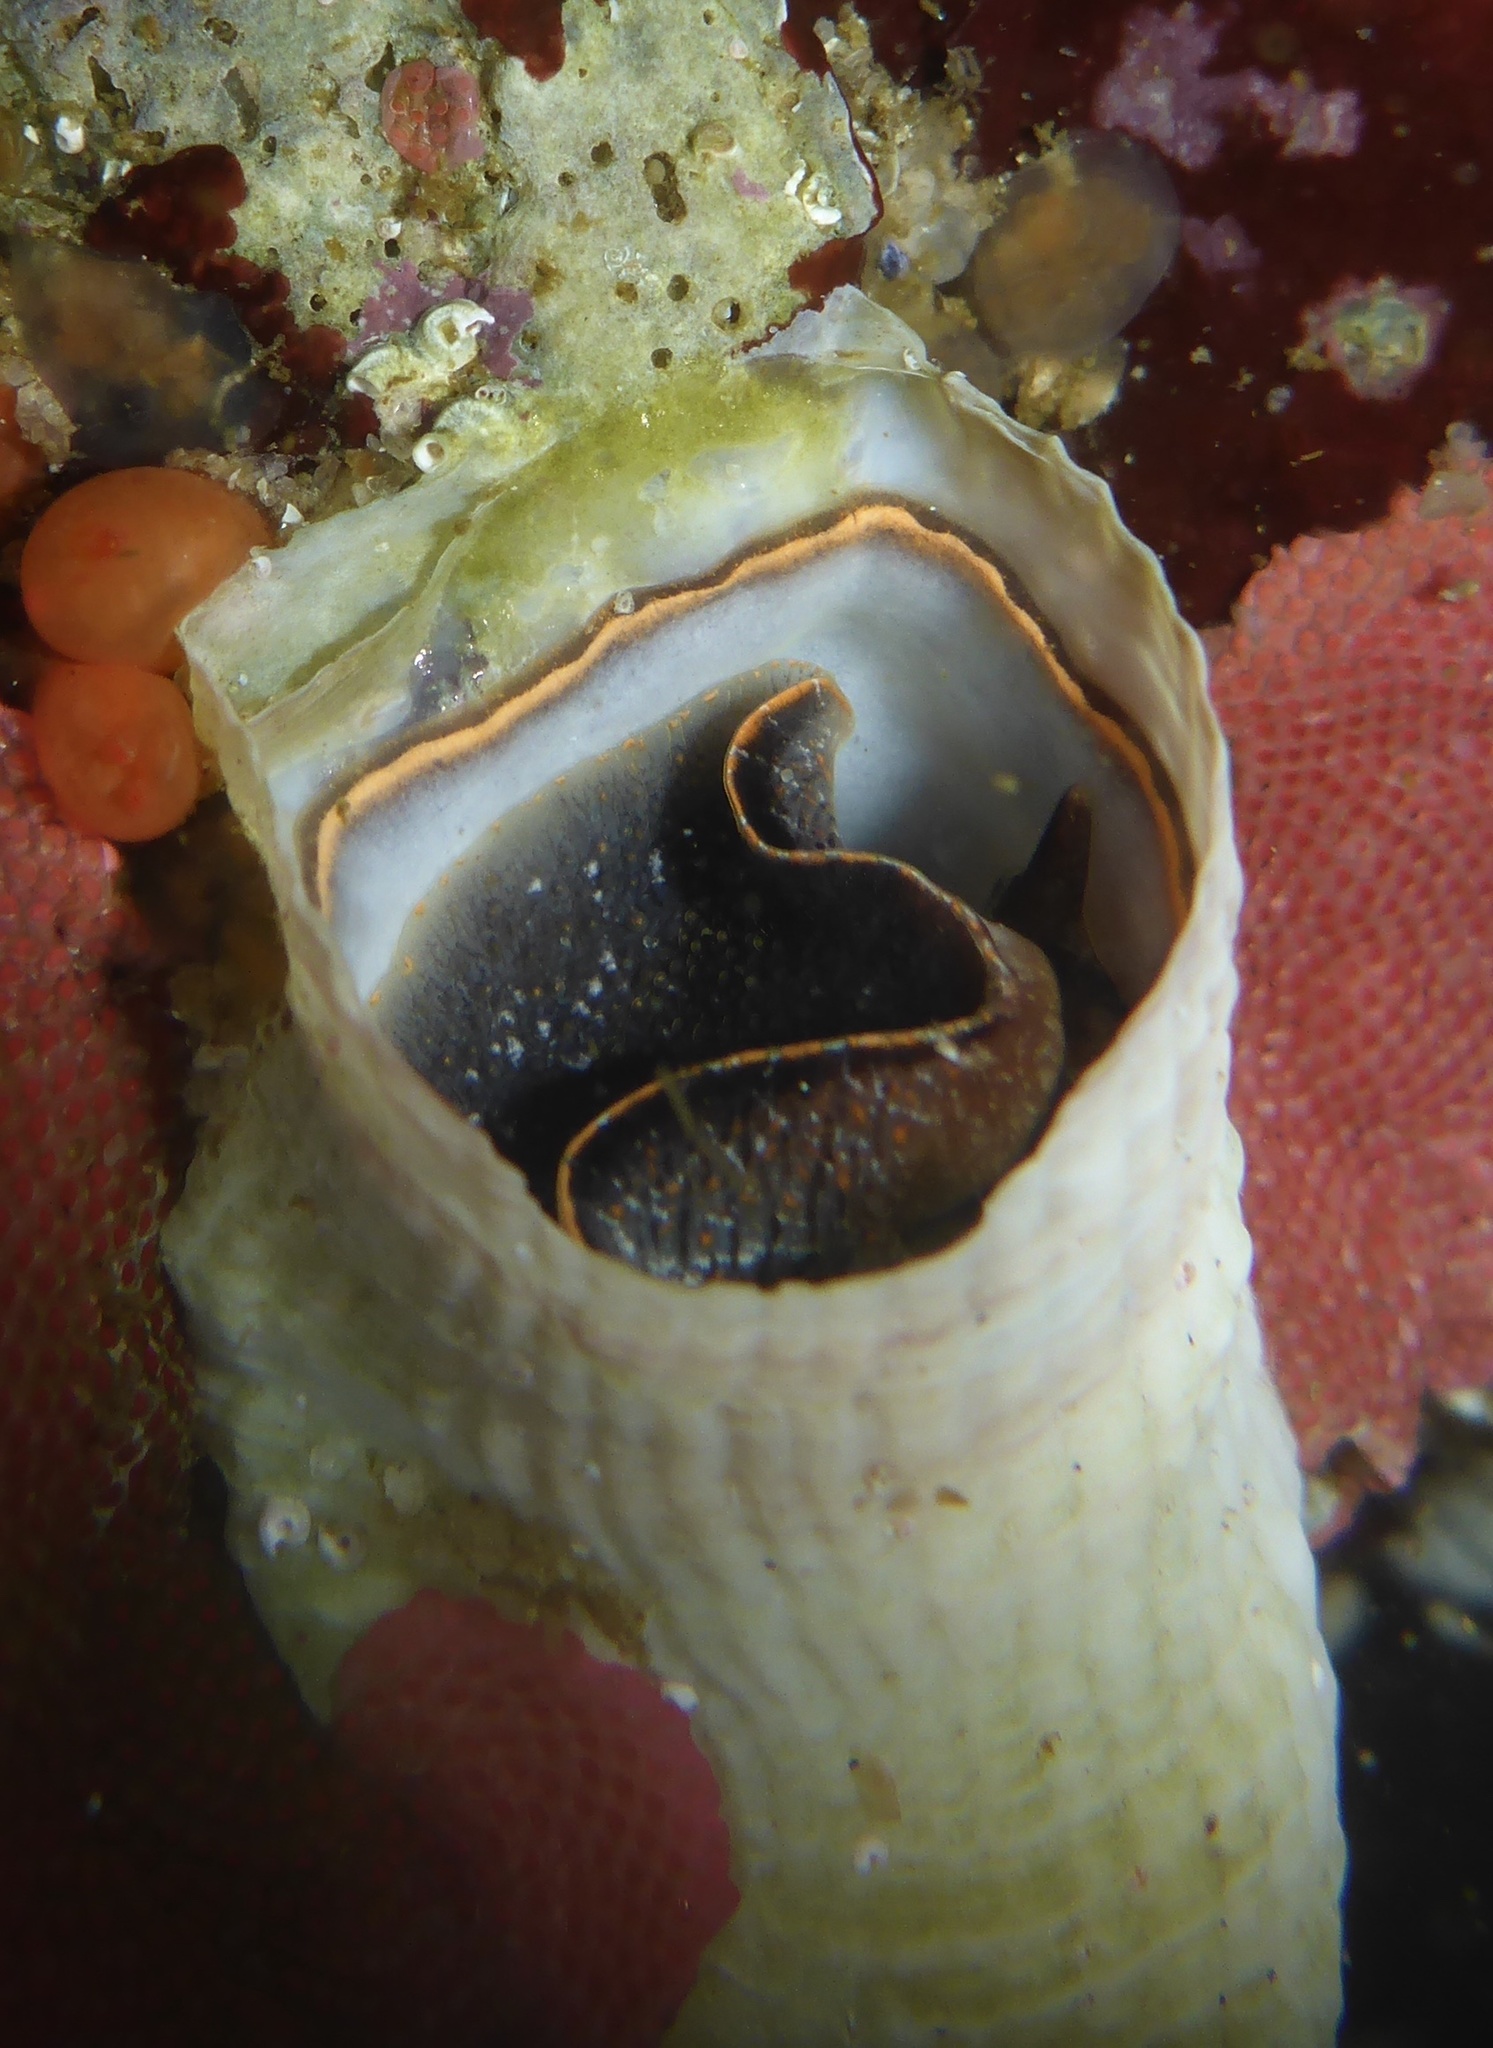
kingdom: Animalia
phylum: Mollusca
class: Gastropoda
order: Littorinimorpha
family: Vermetidae
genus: Thylacodes
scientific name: Thylacodes squamigerus
